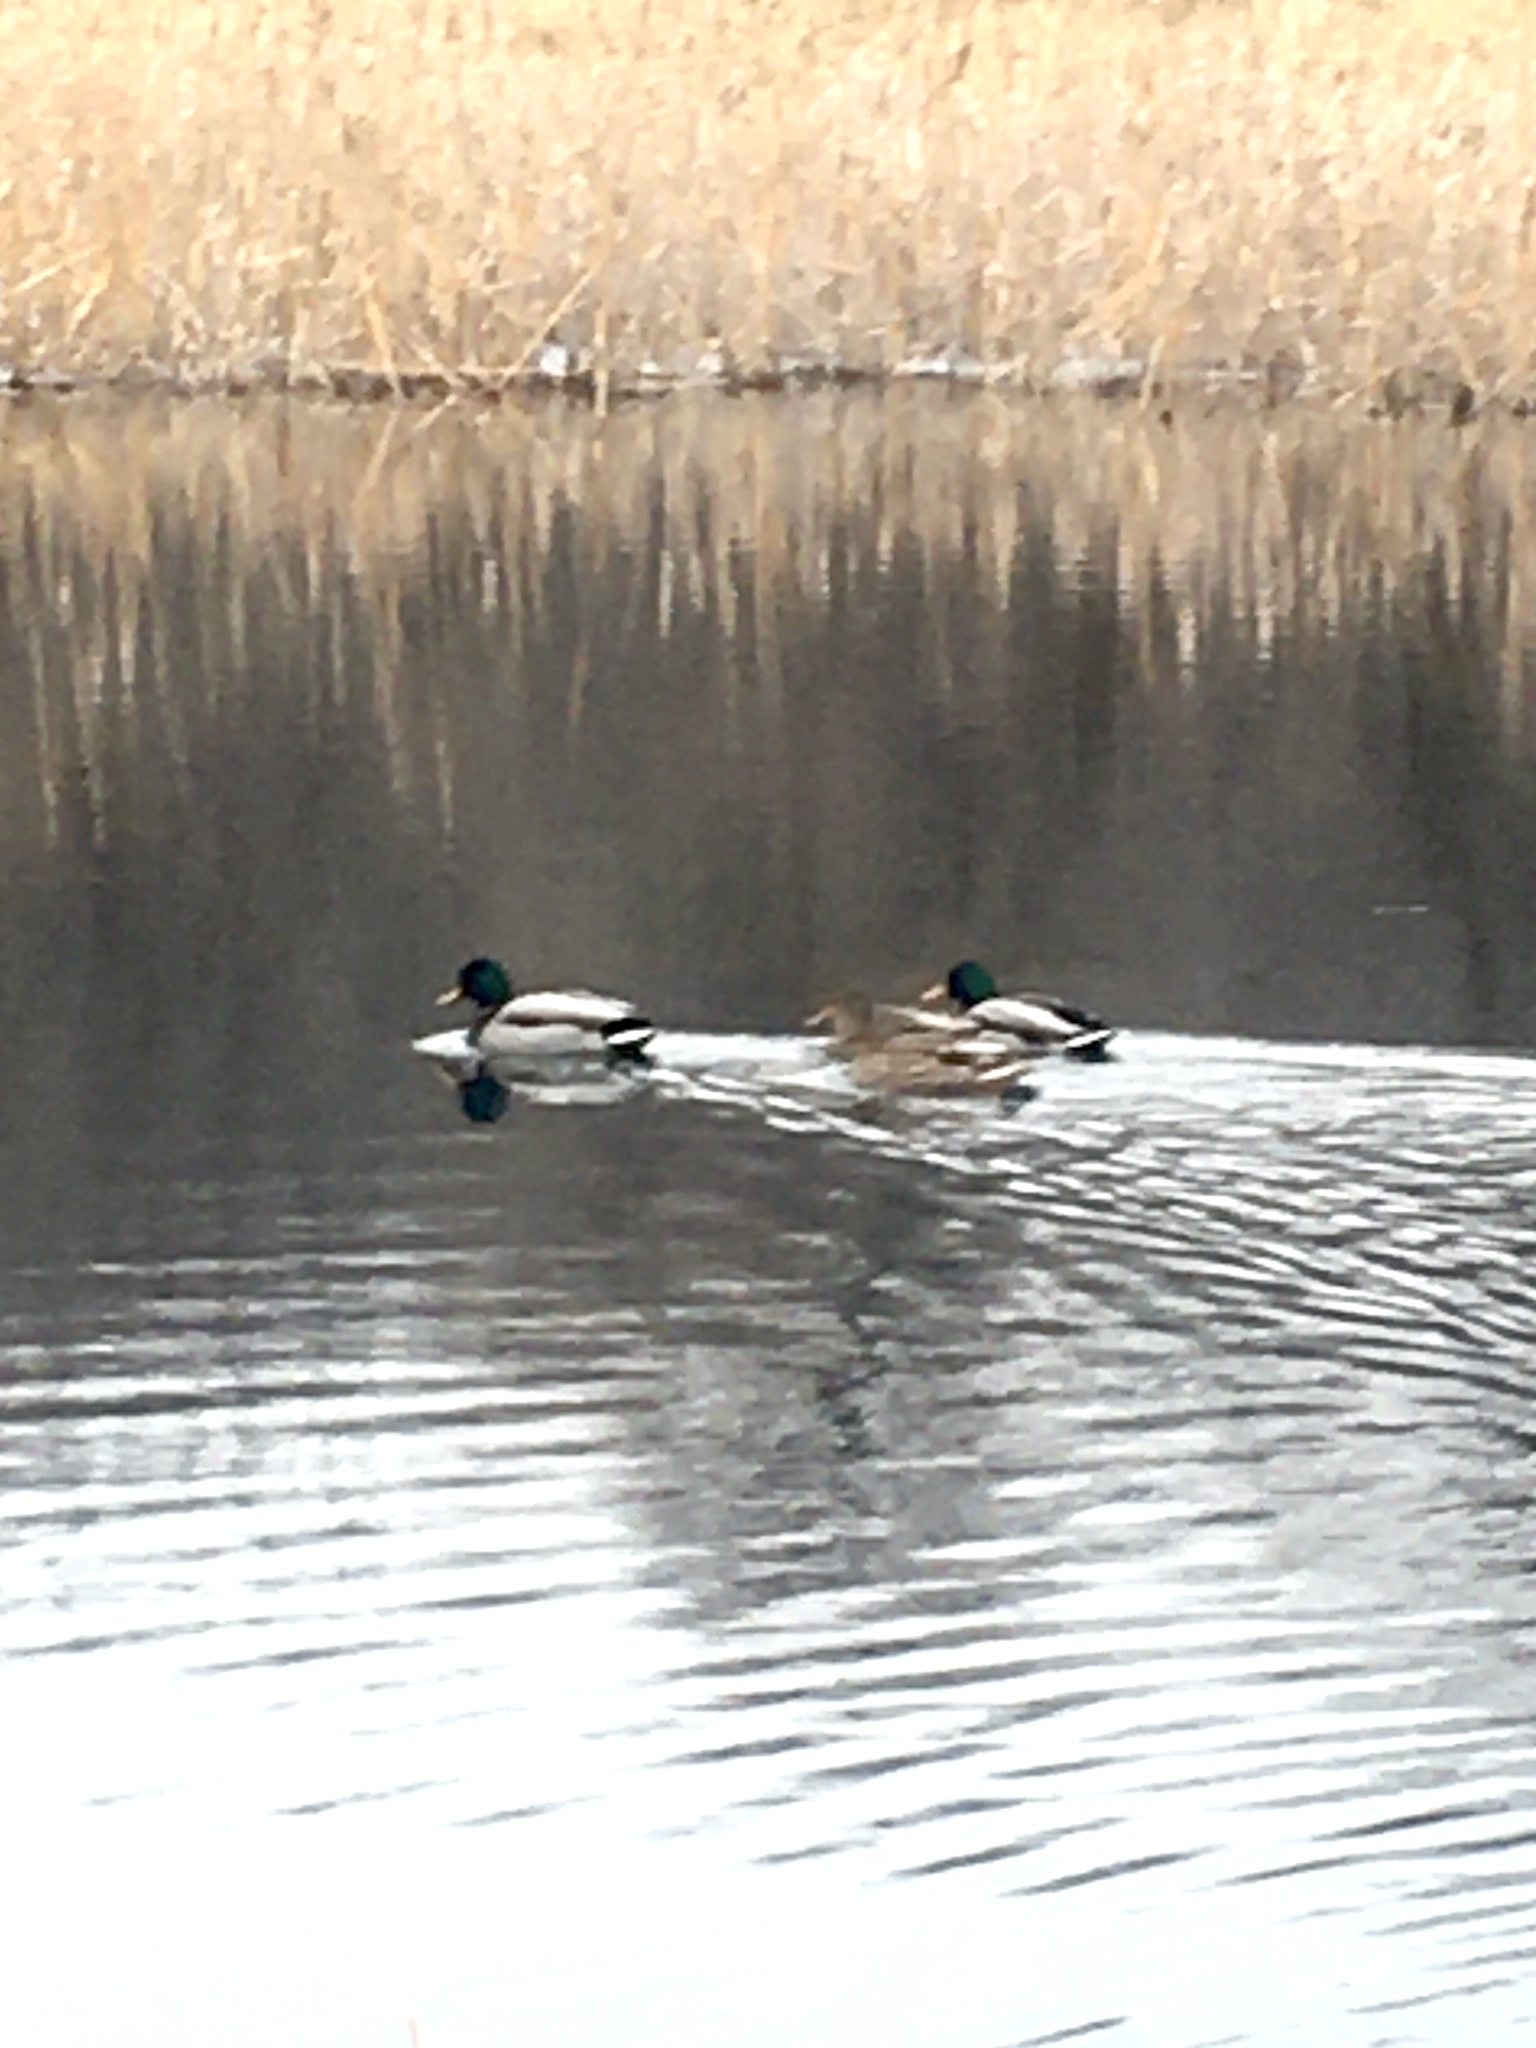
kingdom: Animalia
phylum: Chordata
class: Aves
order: Anseriformes
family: Anatidae
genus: Anas
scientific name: Anas platyrhynchos
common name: Mallard
